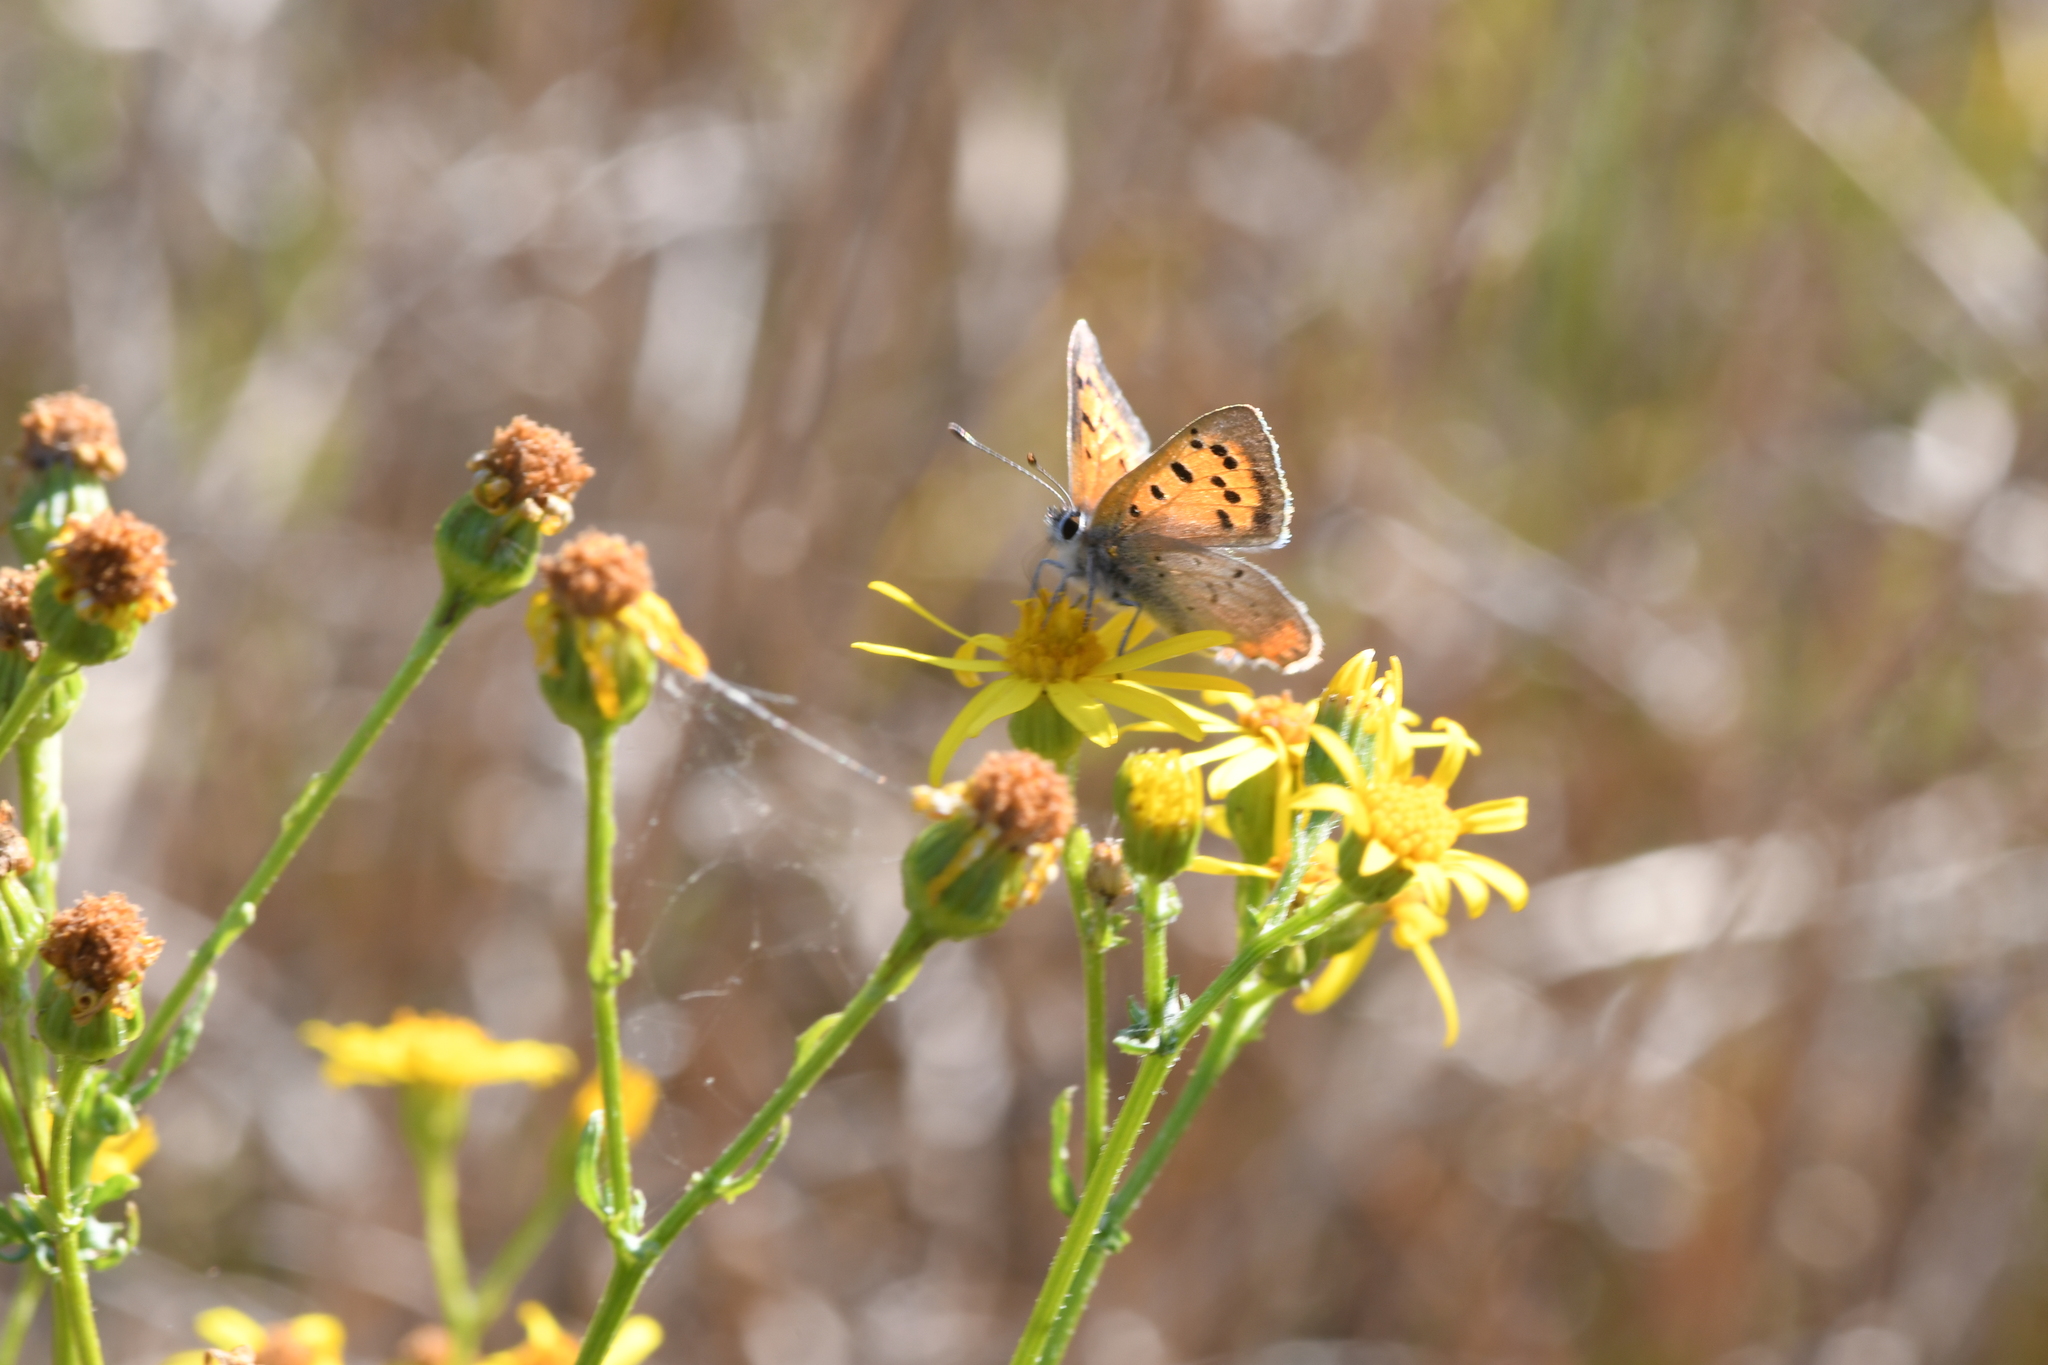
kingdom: Animalia
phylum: Arthropoda
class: Insecta
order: Lepidoptera
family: Lycaenidae
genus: Lycaena
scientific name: Lycaena phlaeas
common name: Small copper
